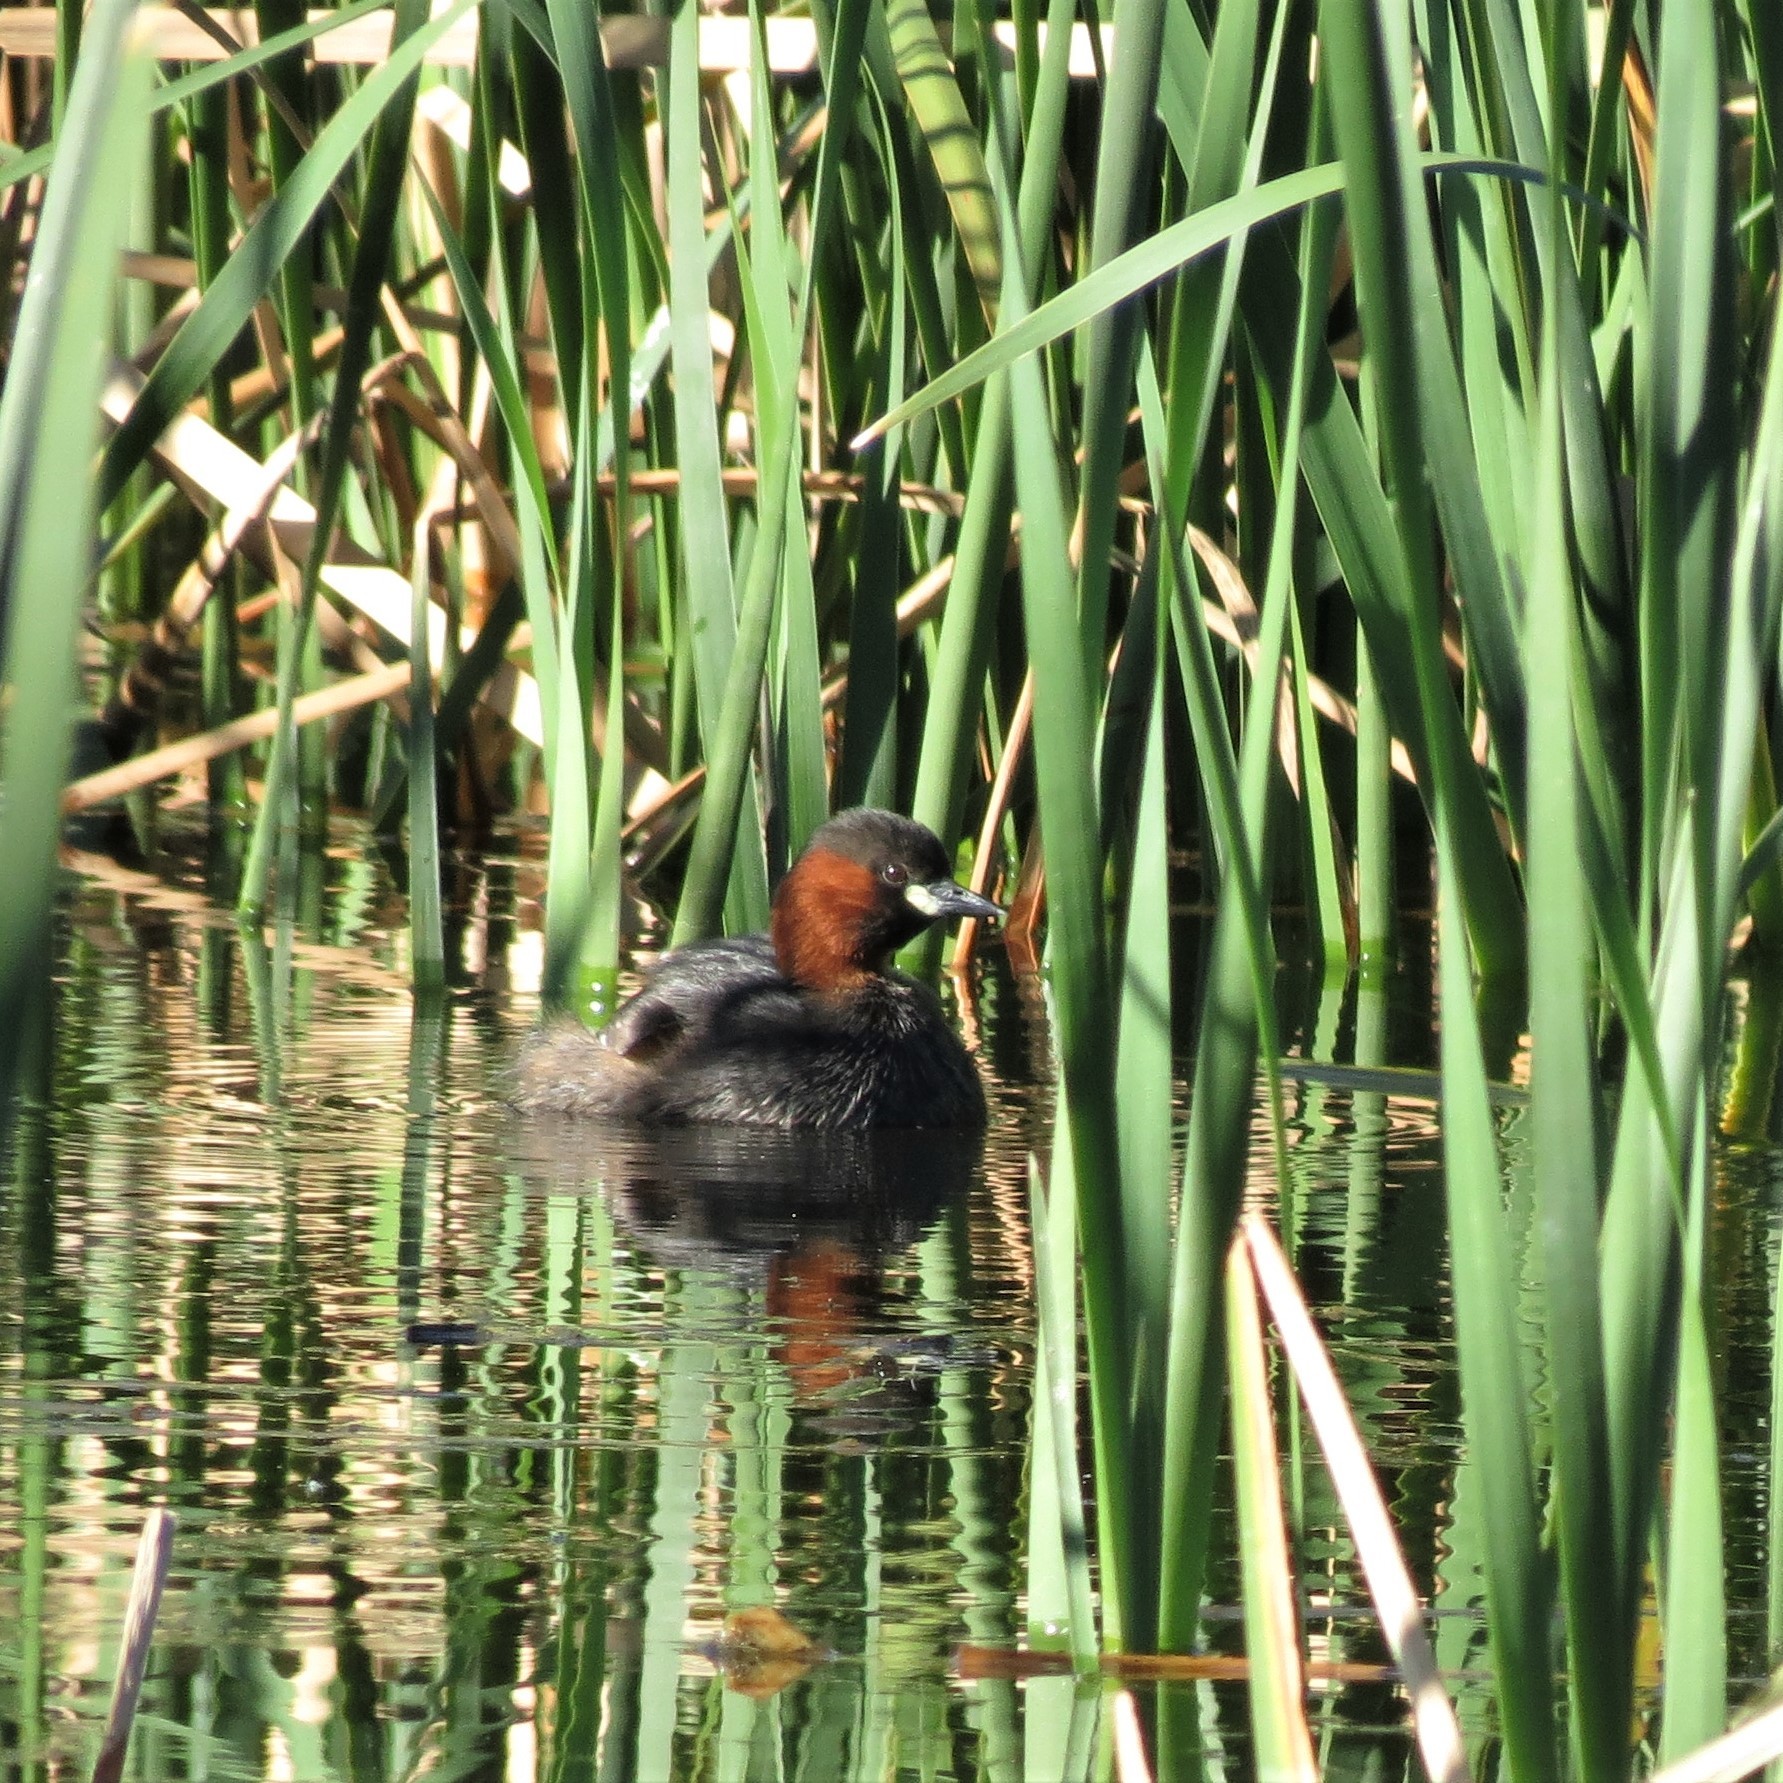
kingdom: Animalia
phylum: Chordata
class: Aves
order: Podicipediformes
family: Podicipedidae
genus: Tachybaptus
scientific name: Tachybaptus ruficollis
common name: Little grebe
